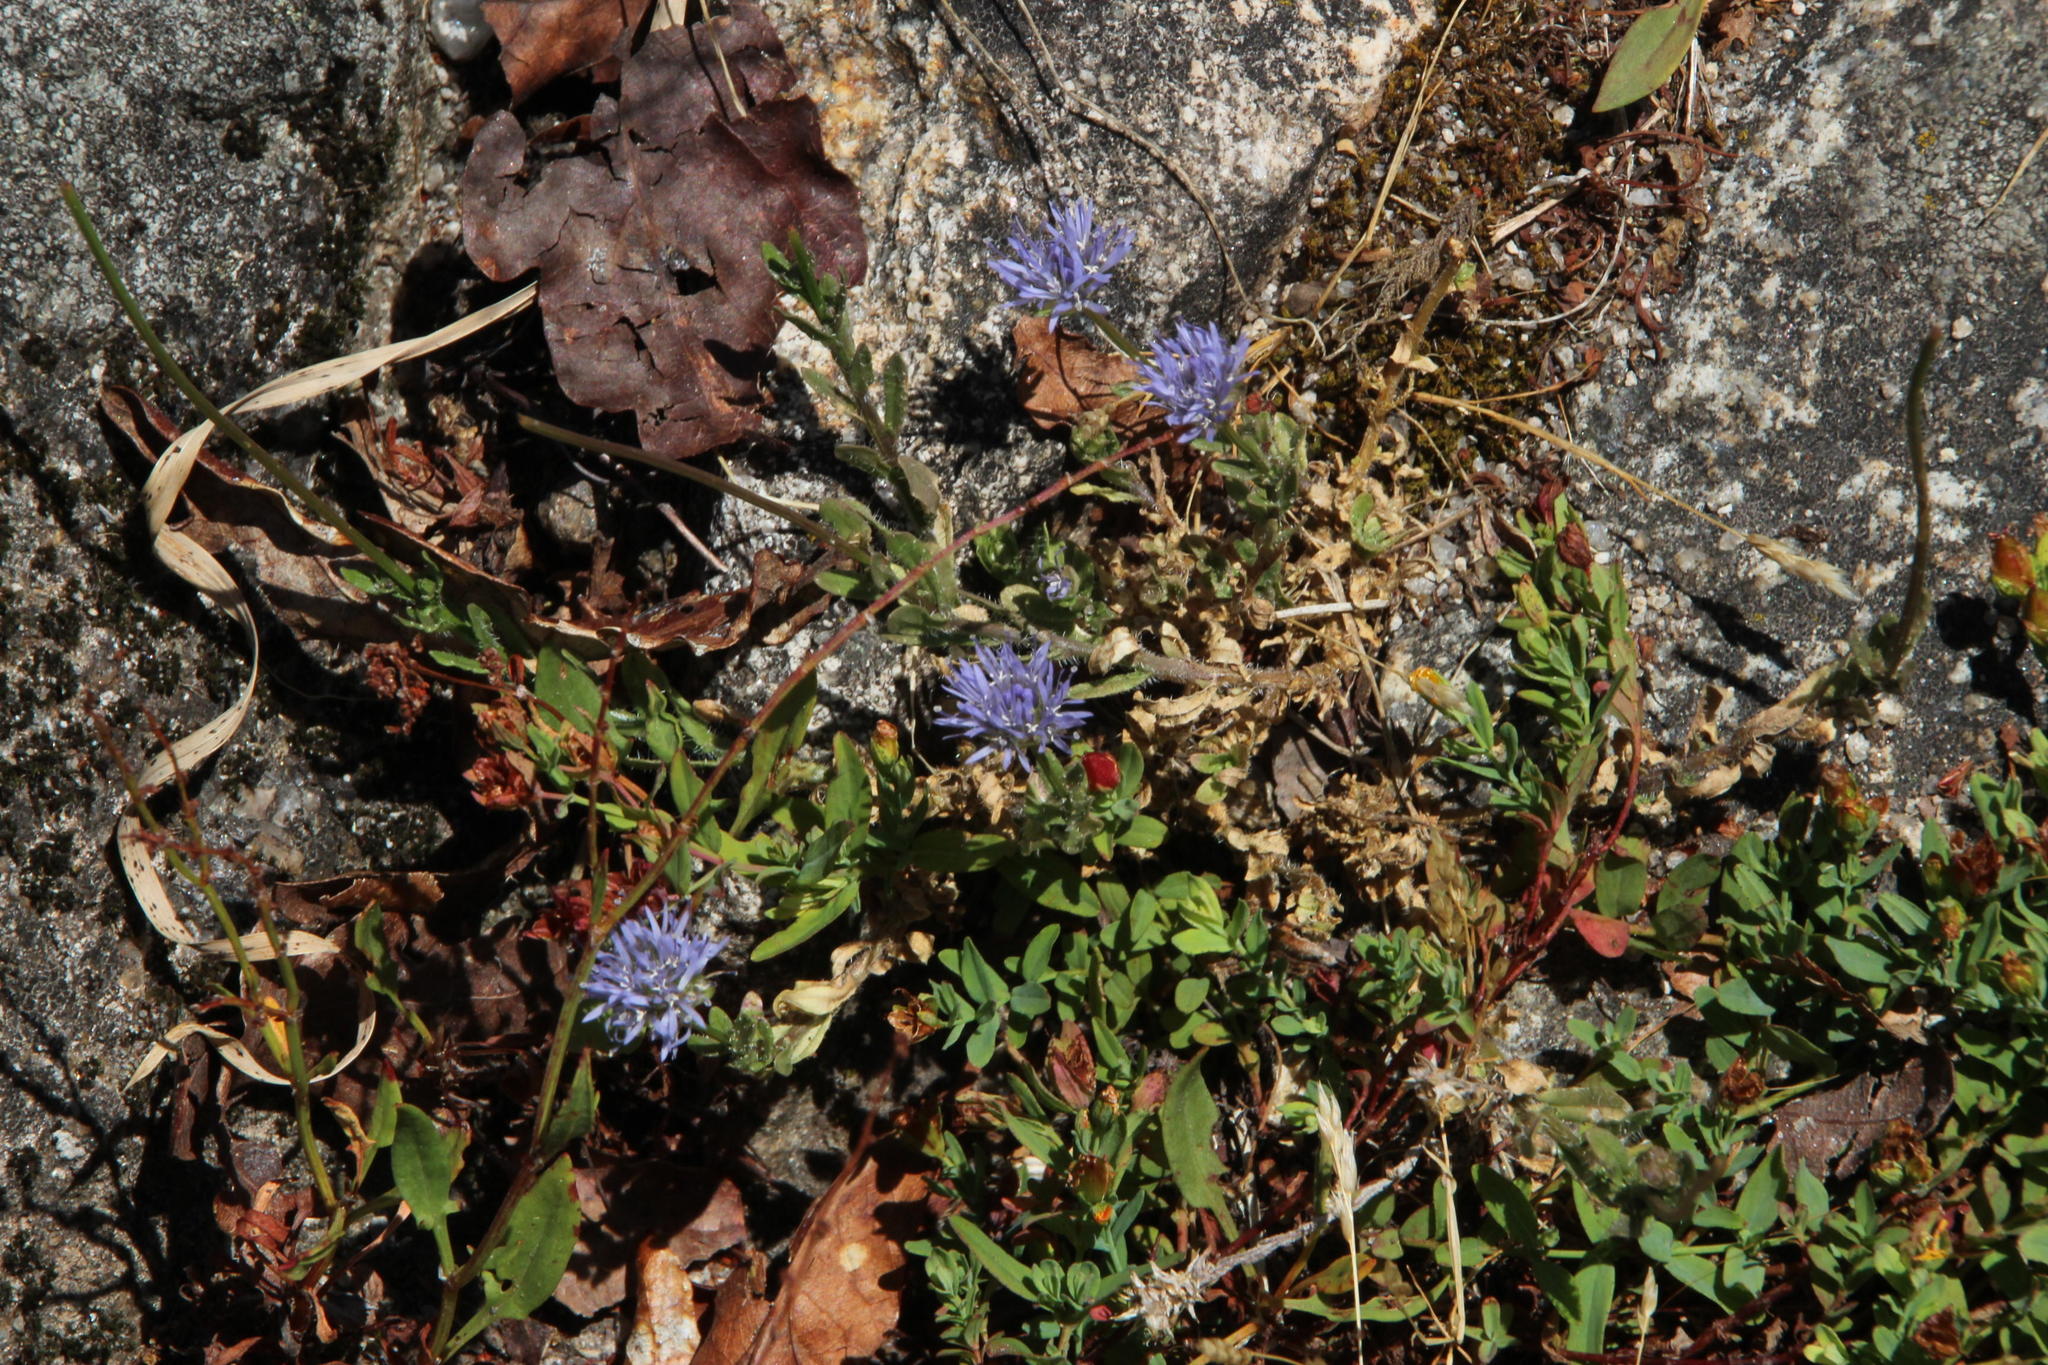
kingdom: Plantae
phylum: Tracheophyta
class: Magnoliopsida
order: Asterales
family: Campanulaceae
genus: Jasione
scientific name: Jasione montana
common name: Sheep's-bit
